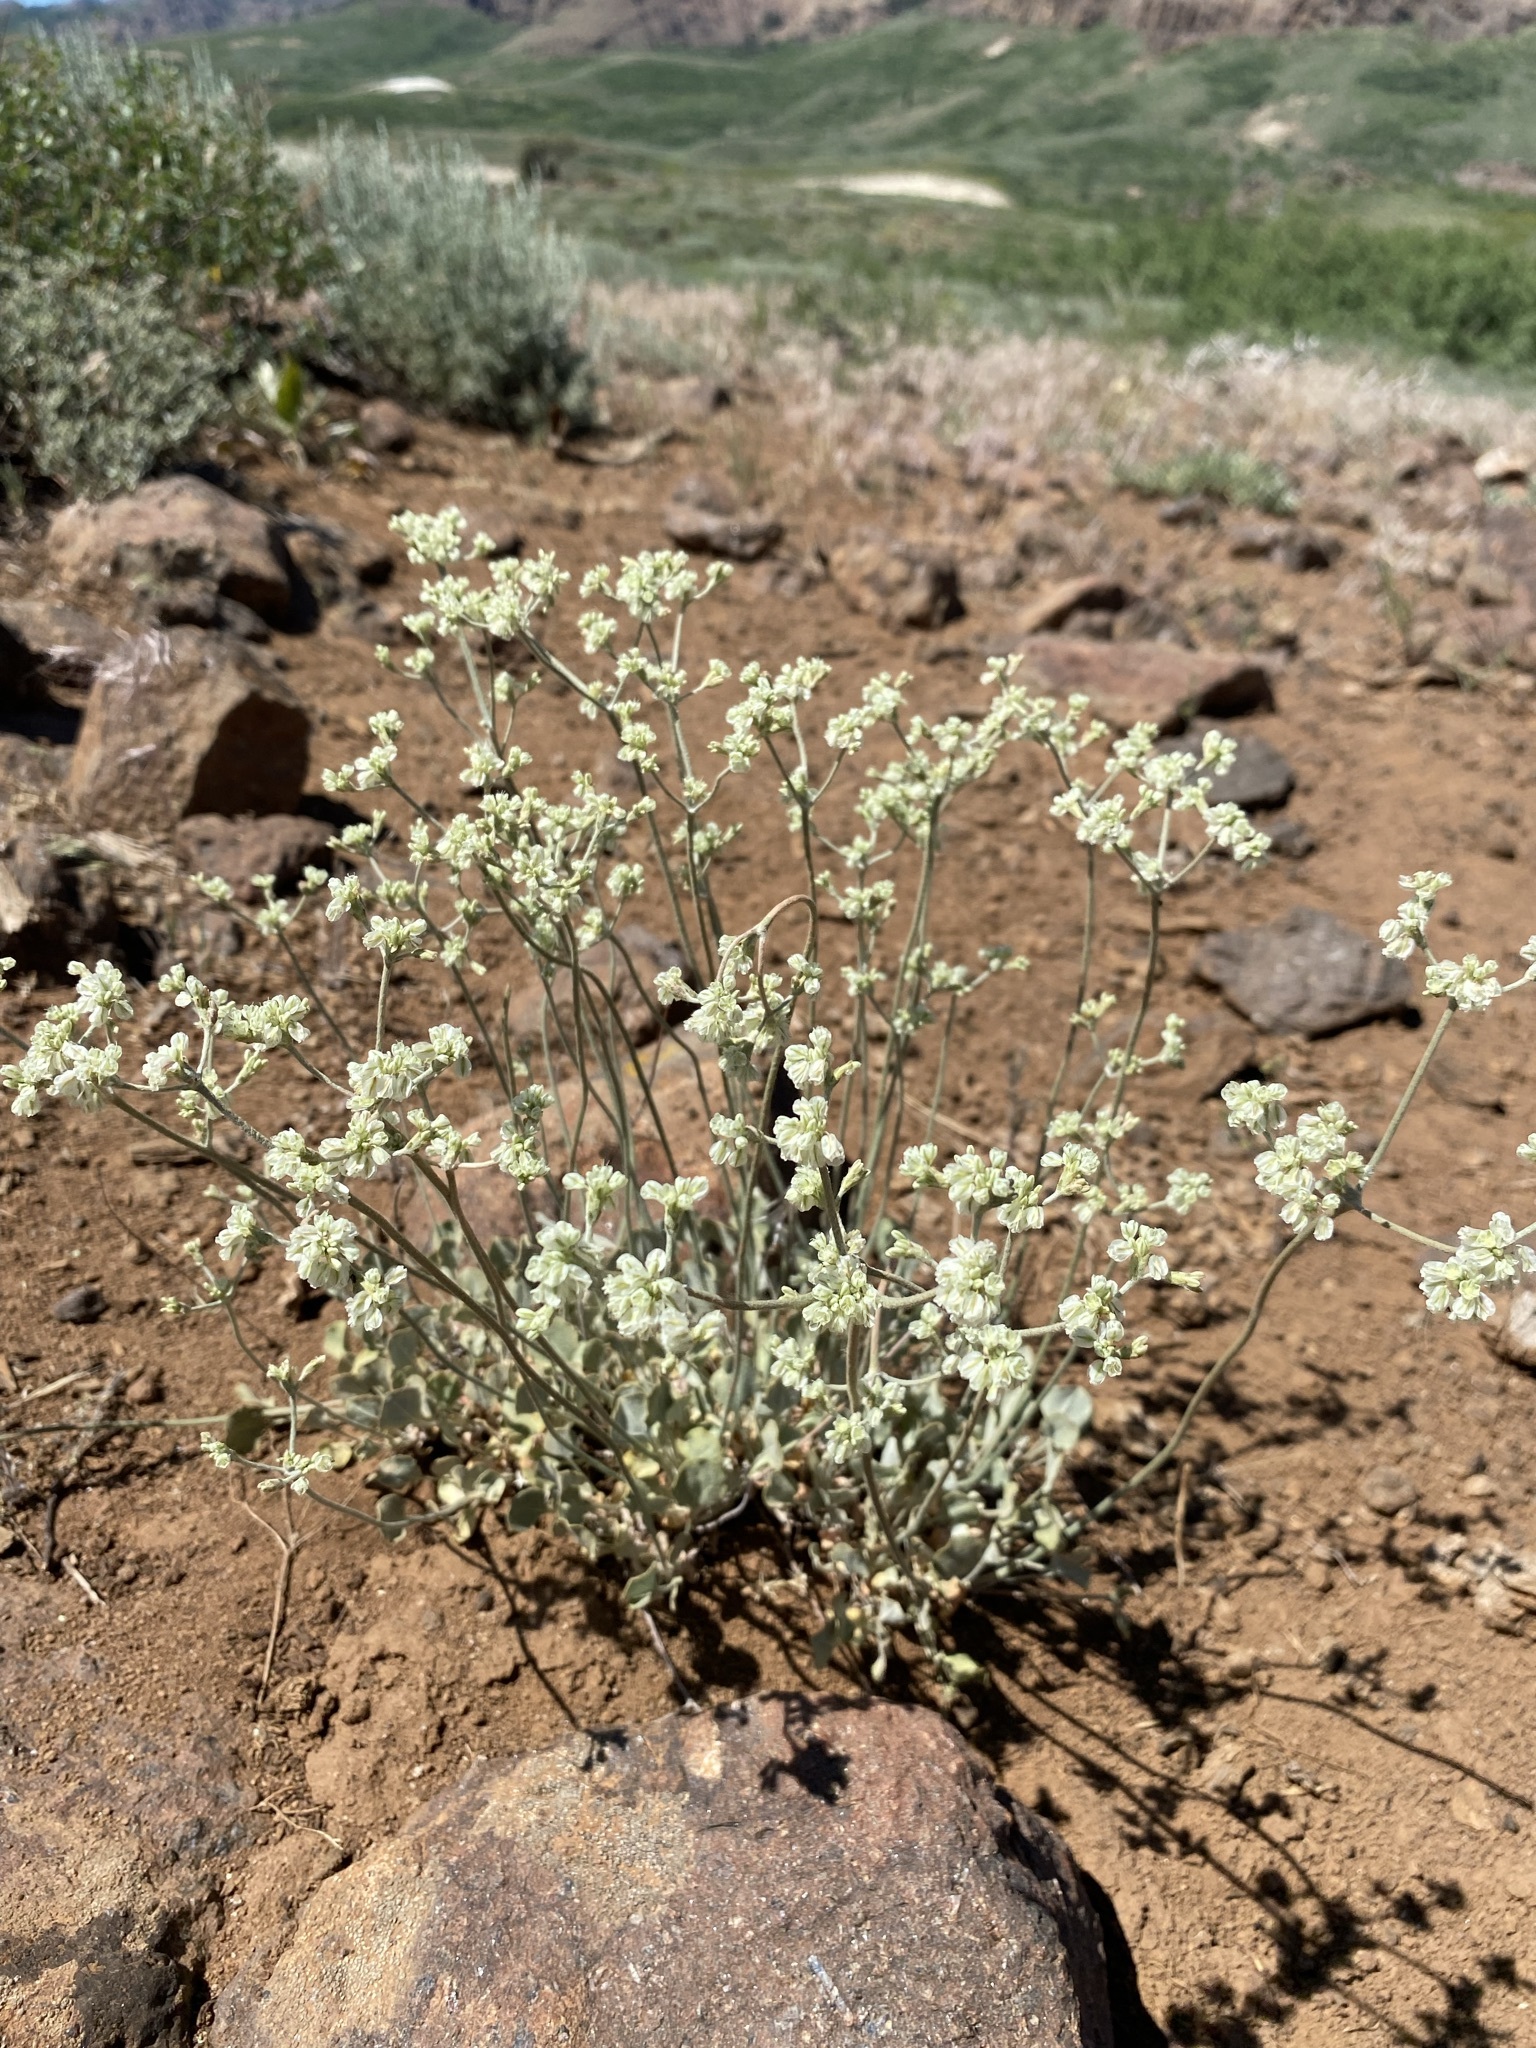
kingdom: Plantae
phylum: Tracheophyta
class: Magnoliopsida
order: Caryophyllales
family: Polygonaceae
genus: Eriogonum
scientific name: Eriogonum strictum
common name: Blue mountain buckwheat
